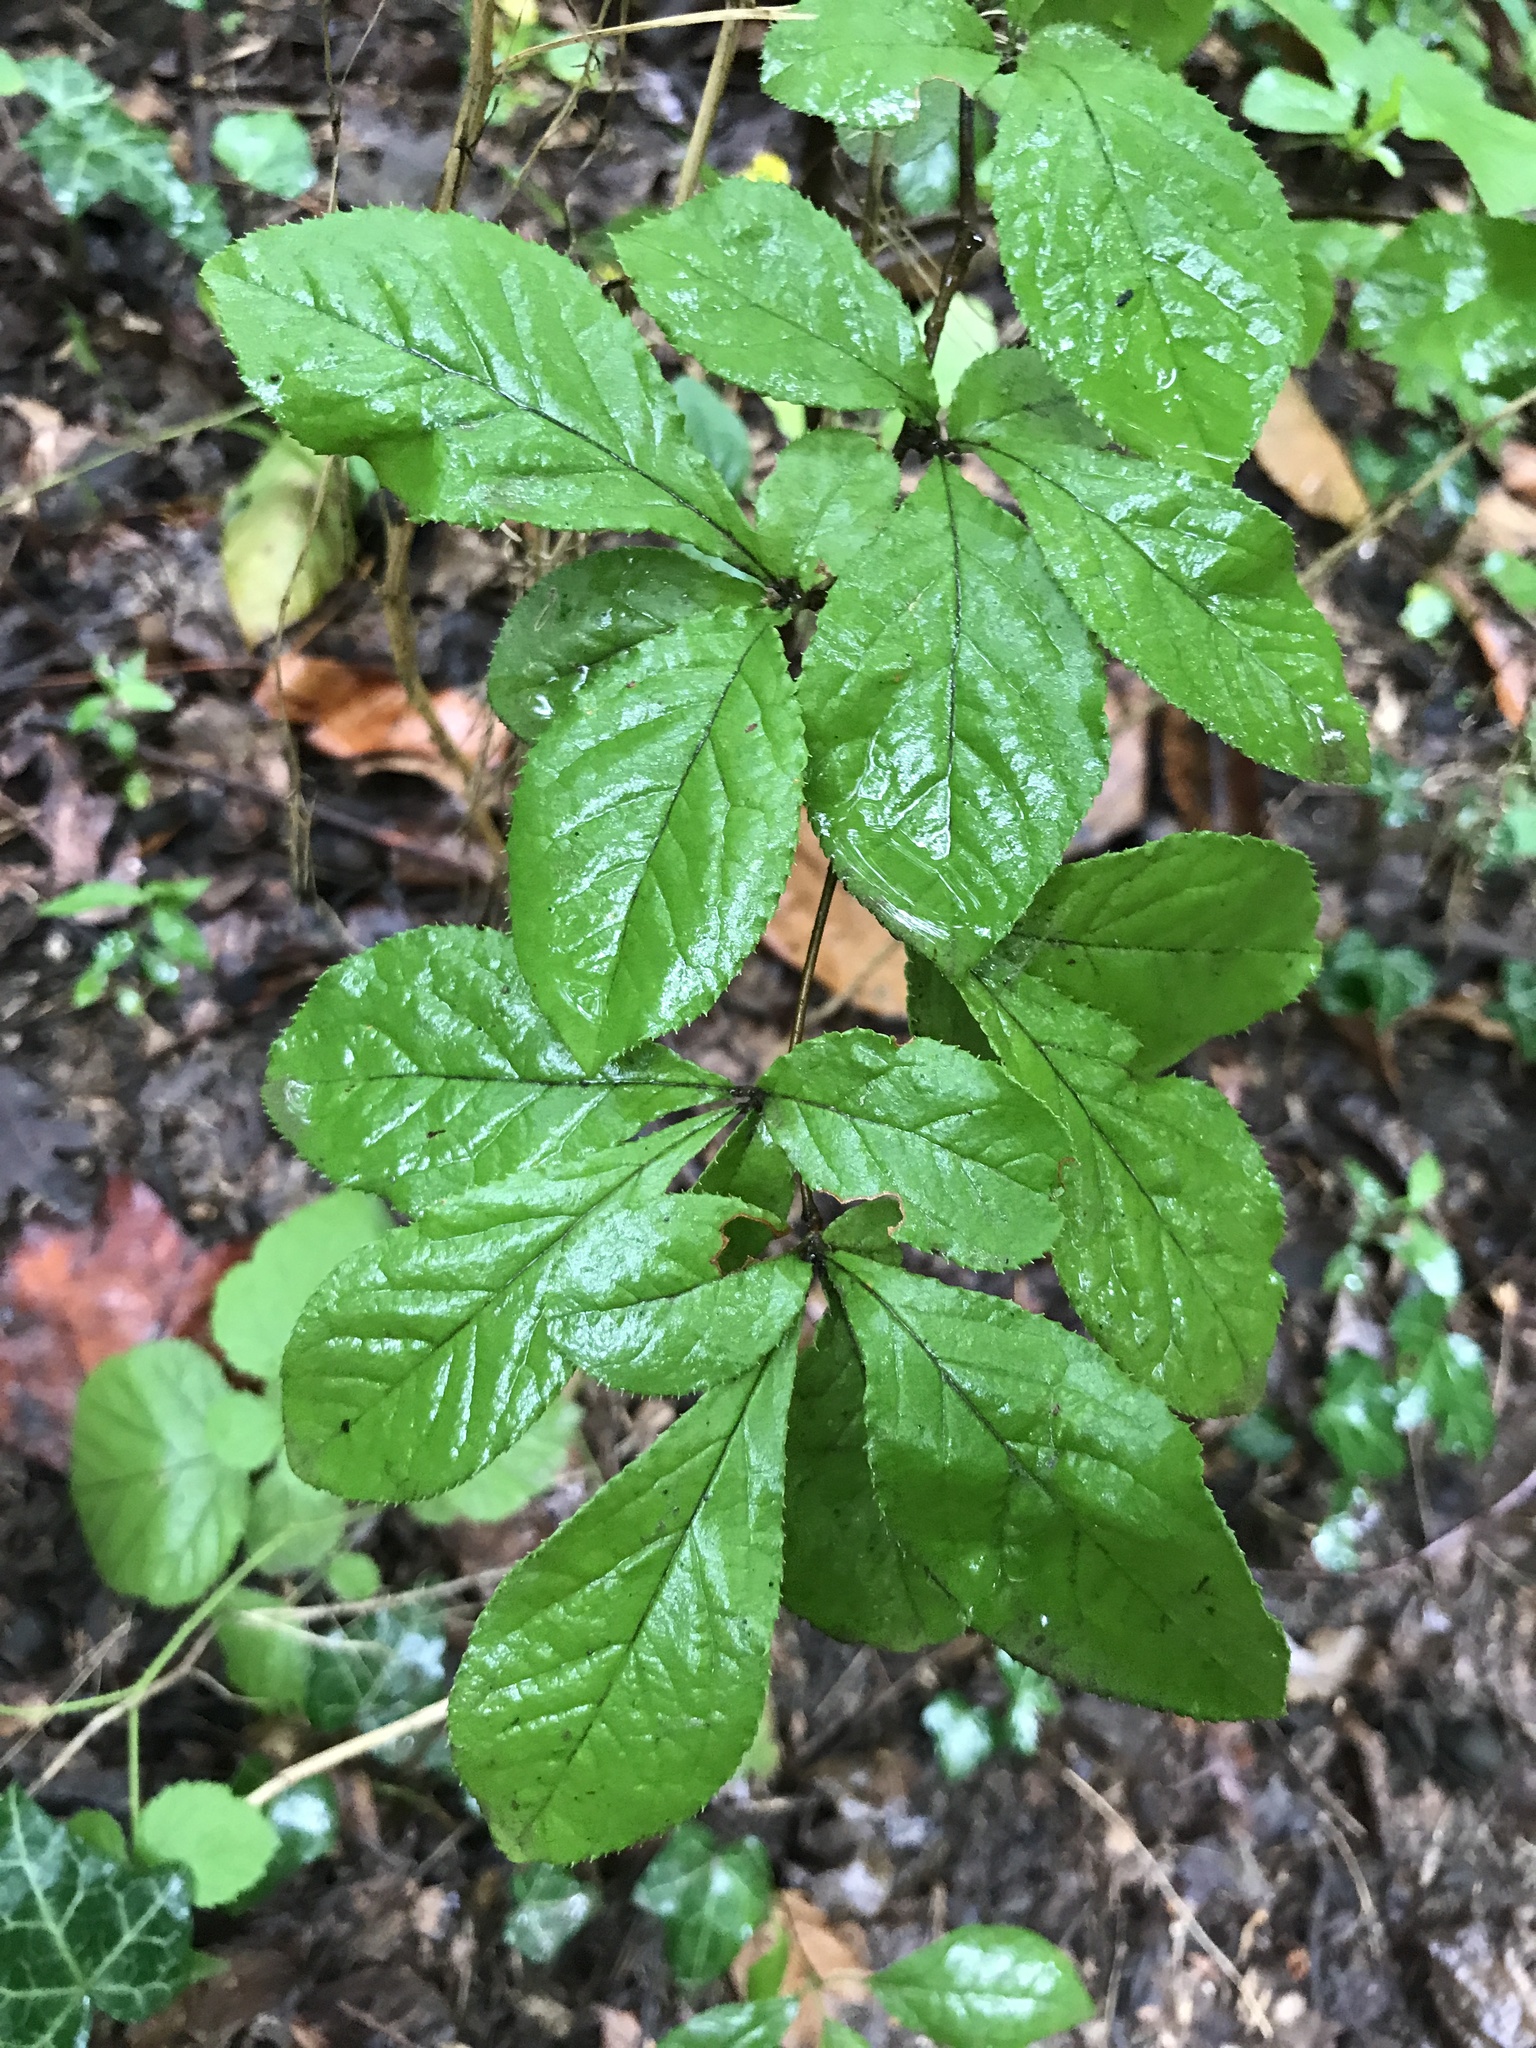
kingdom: Plantae
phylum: Tracheophyta
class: Magnoliopsida
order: Rosales
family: Rosaceae
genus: Pourthiaea
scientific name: Pourthiaea villosa
